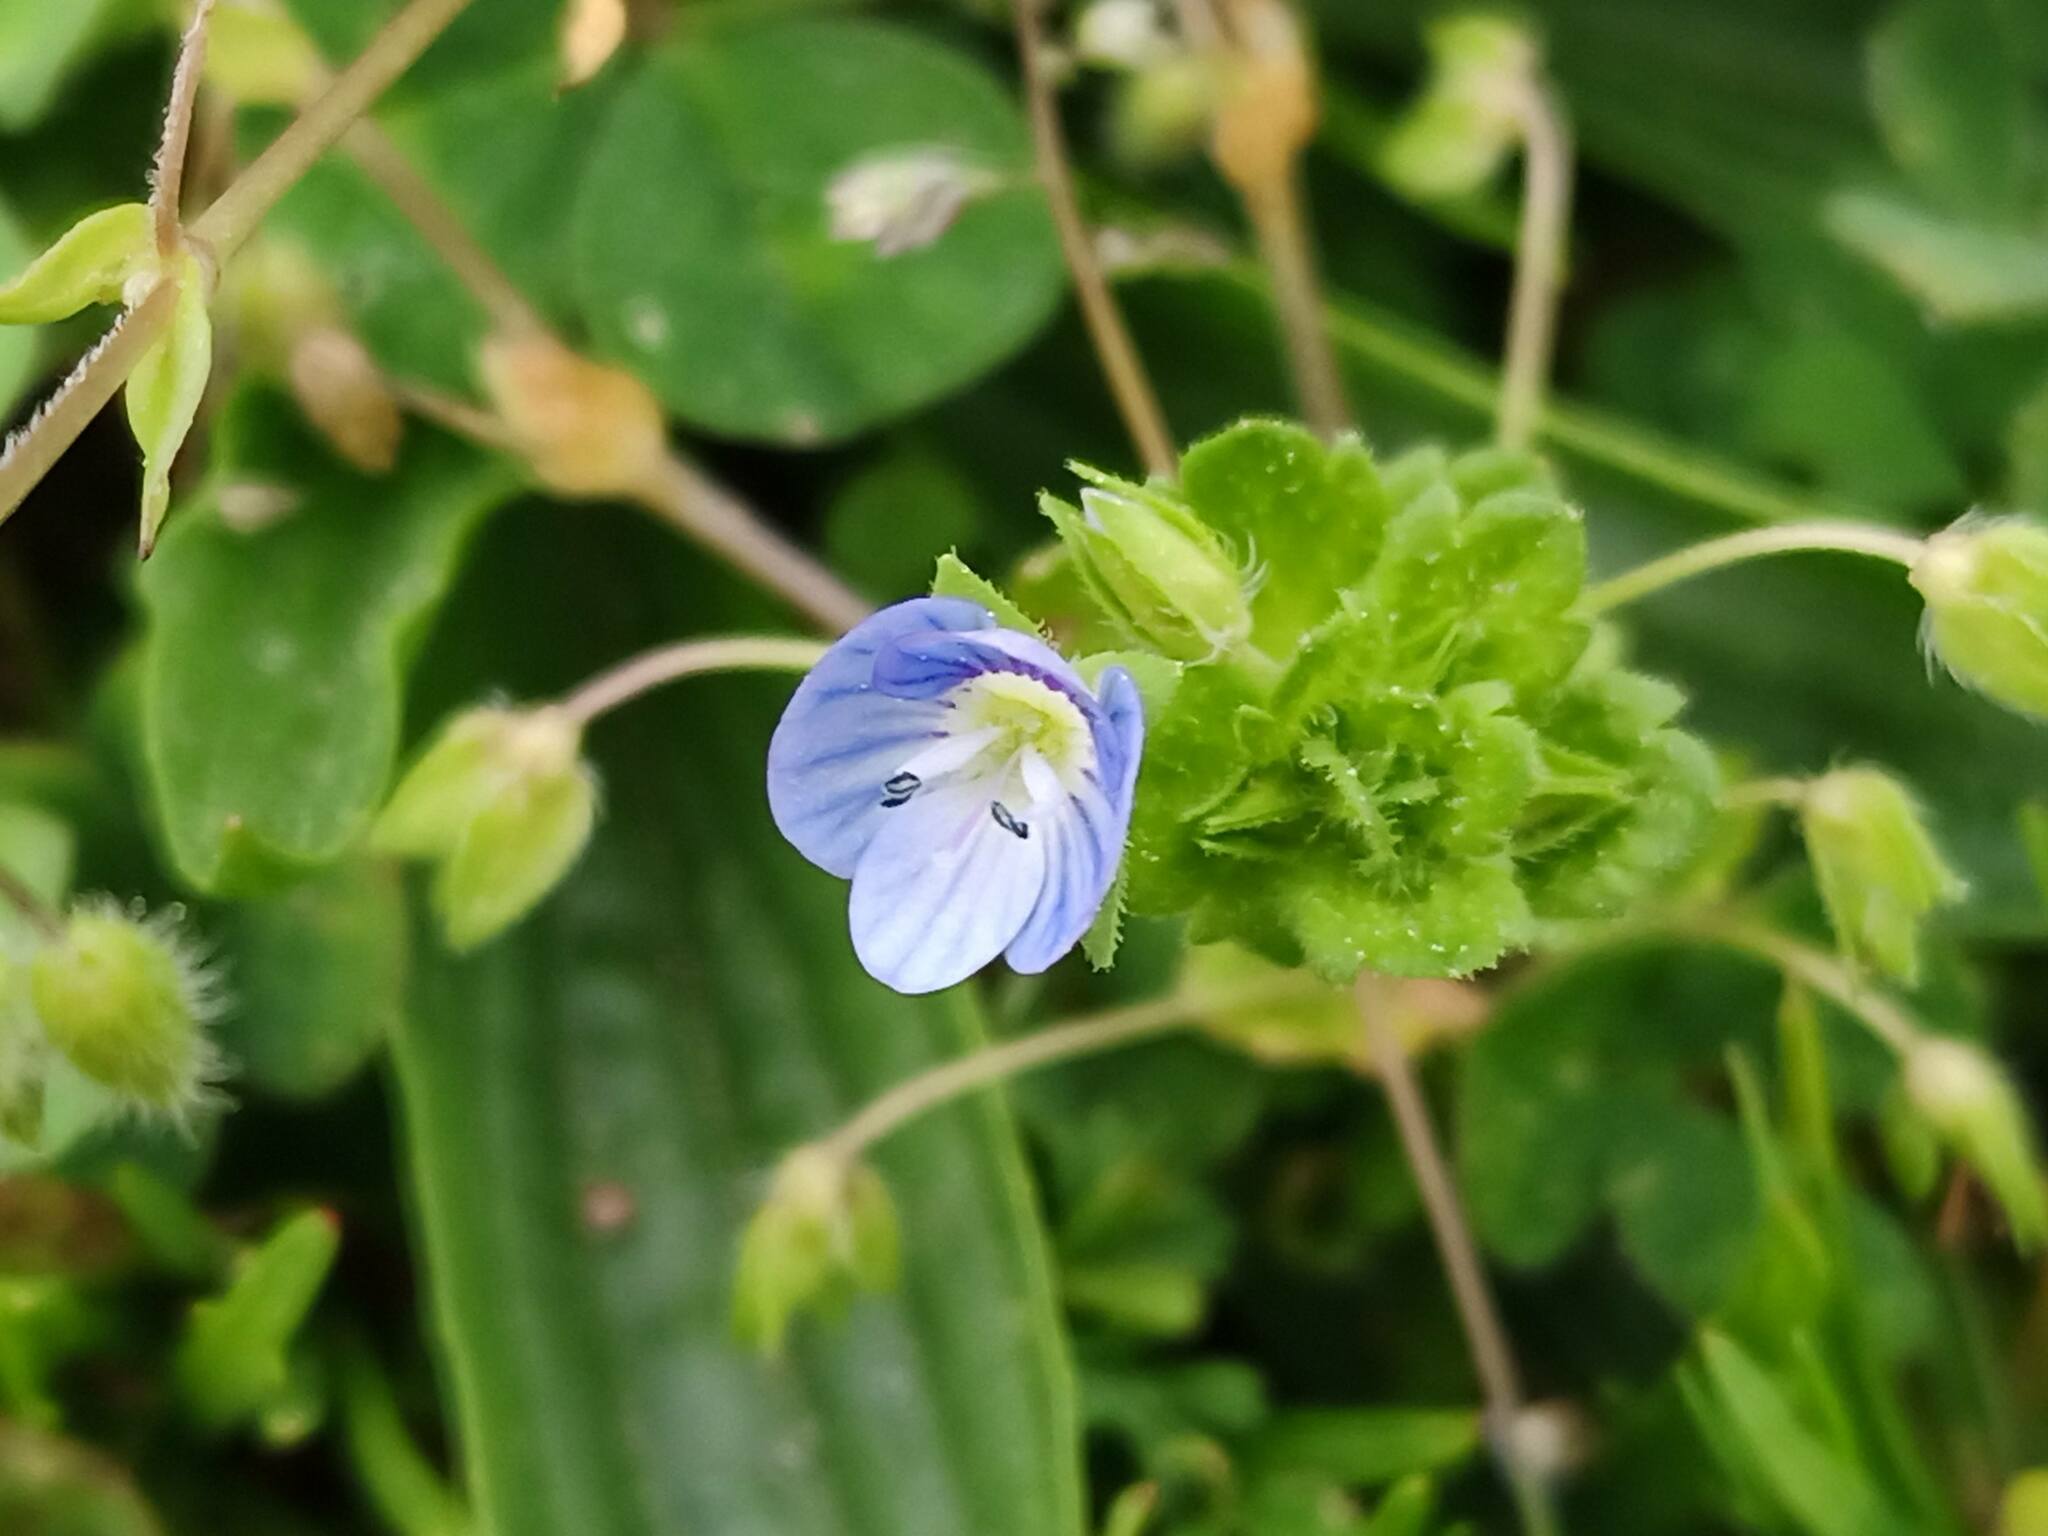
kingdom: Plantae
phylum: Tracheophyta
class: Magnoliopsida
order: Lamiales
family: Plantaginaceae
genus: Veronica
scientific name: Veronica persica
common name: Common field-speedwell
